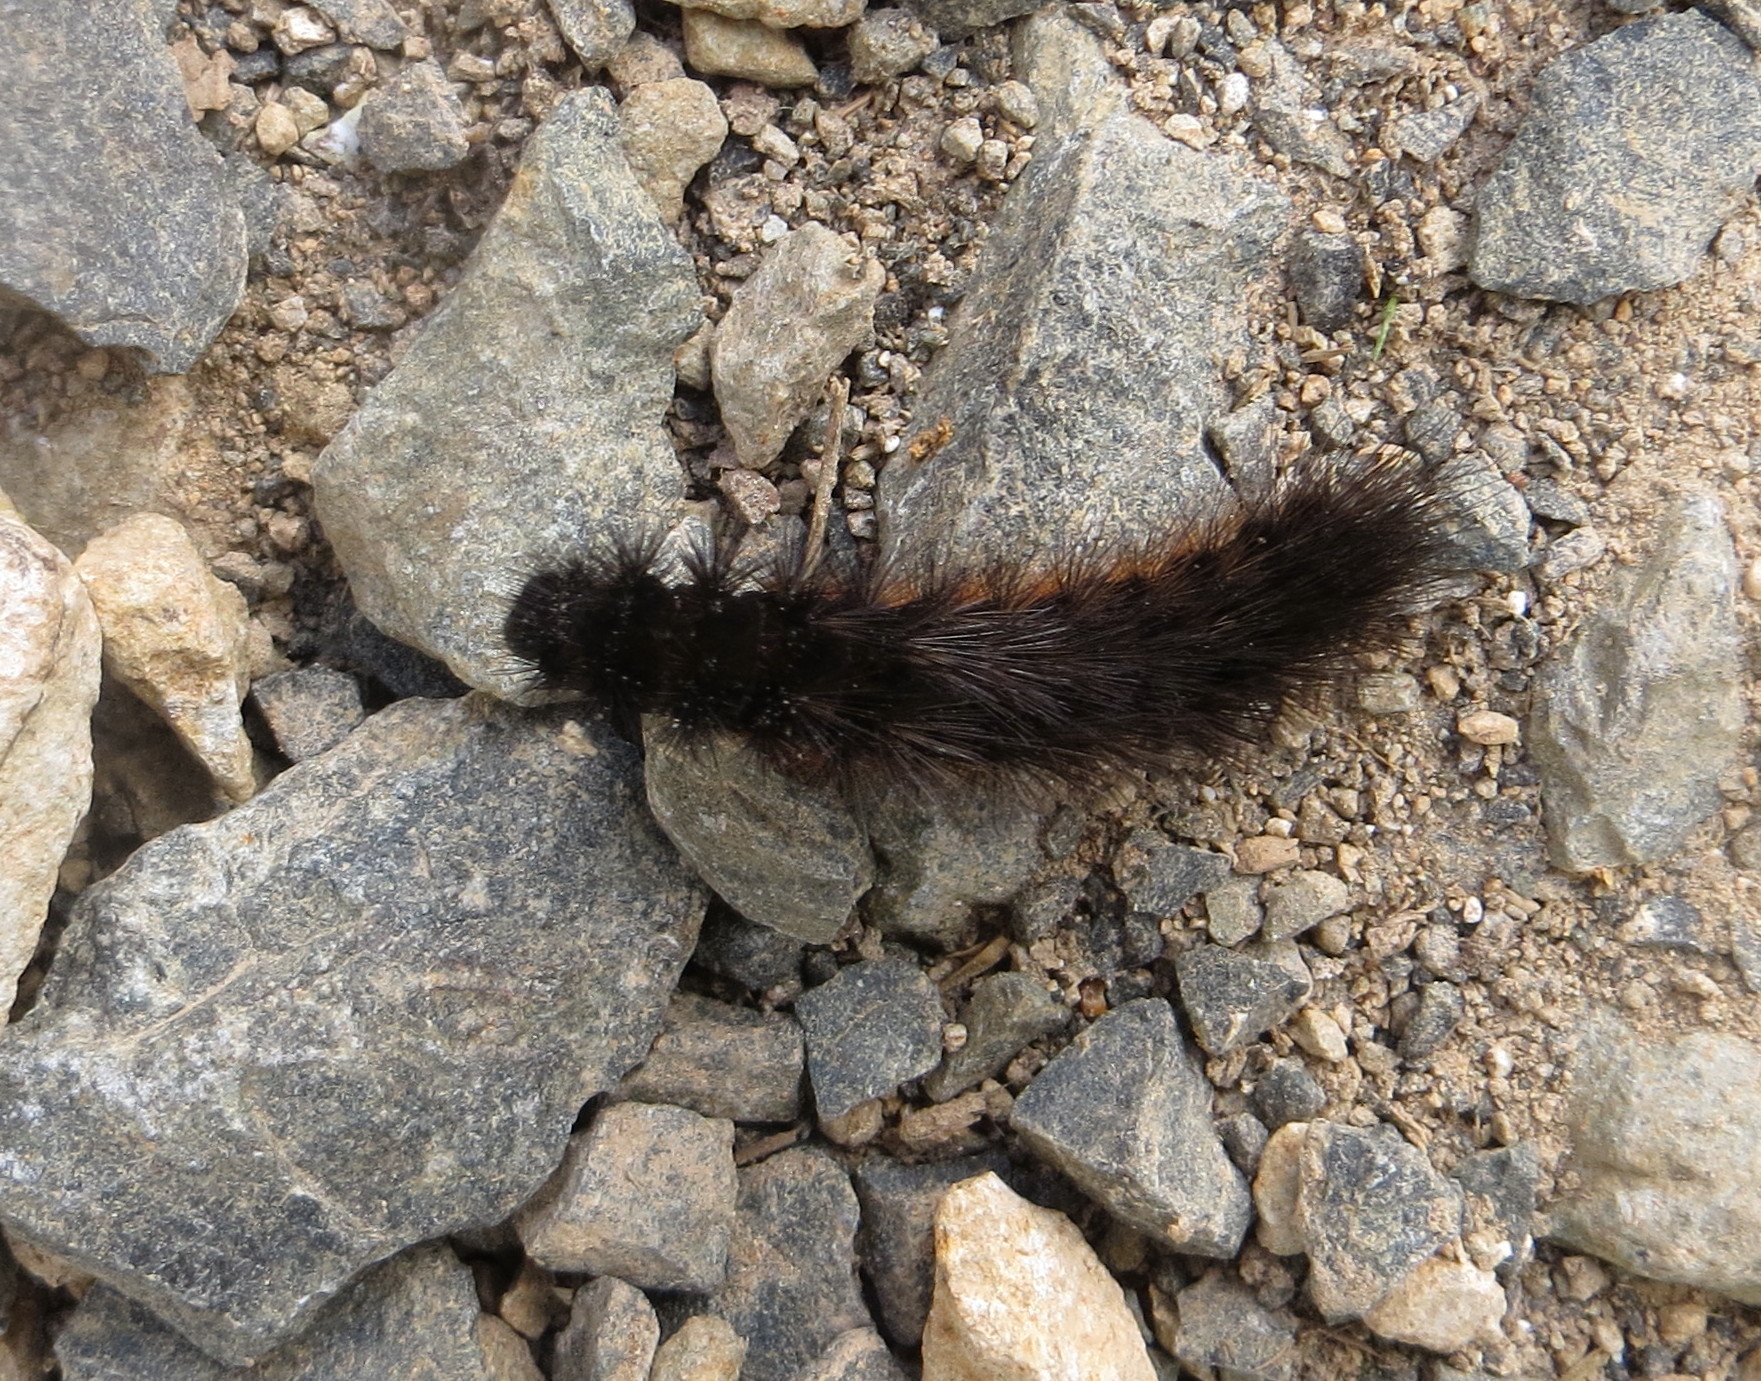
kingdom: Animalia
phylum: Arthropoda
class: Insecta
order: Lepidoptera
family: Erebidae
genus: Metacrias
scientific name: Metacrias strategica
